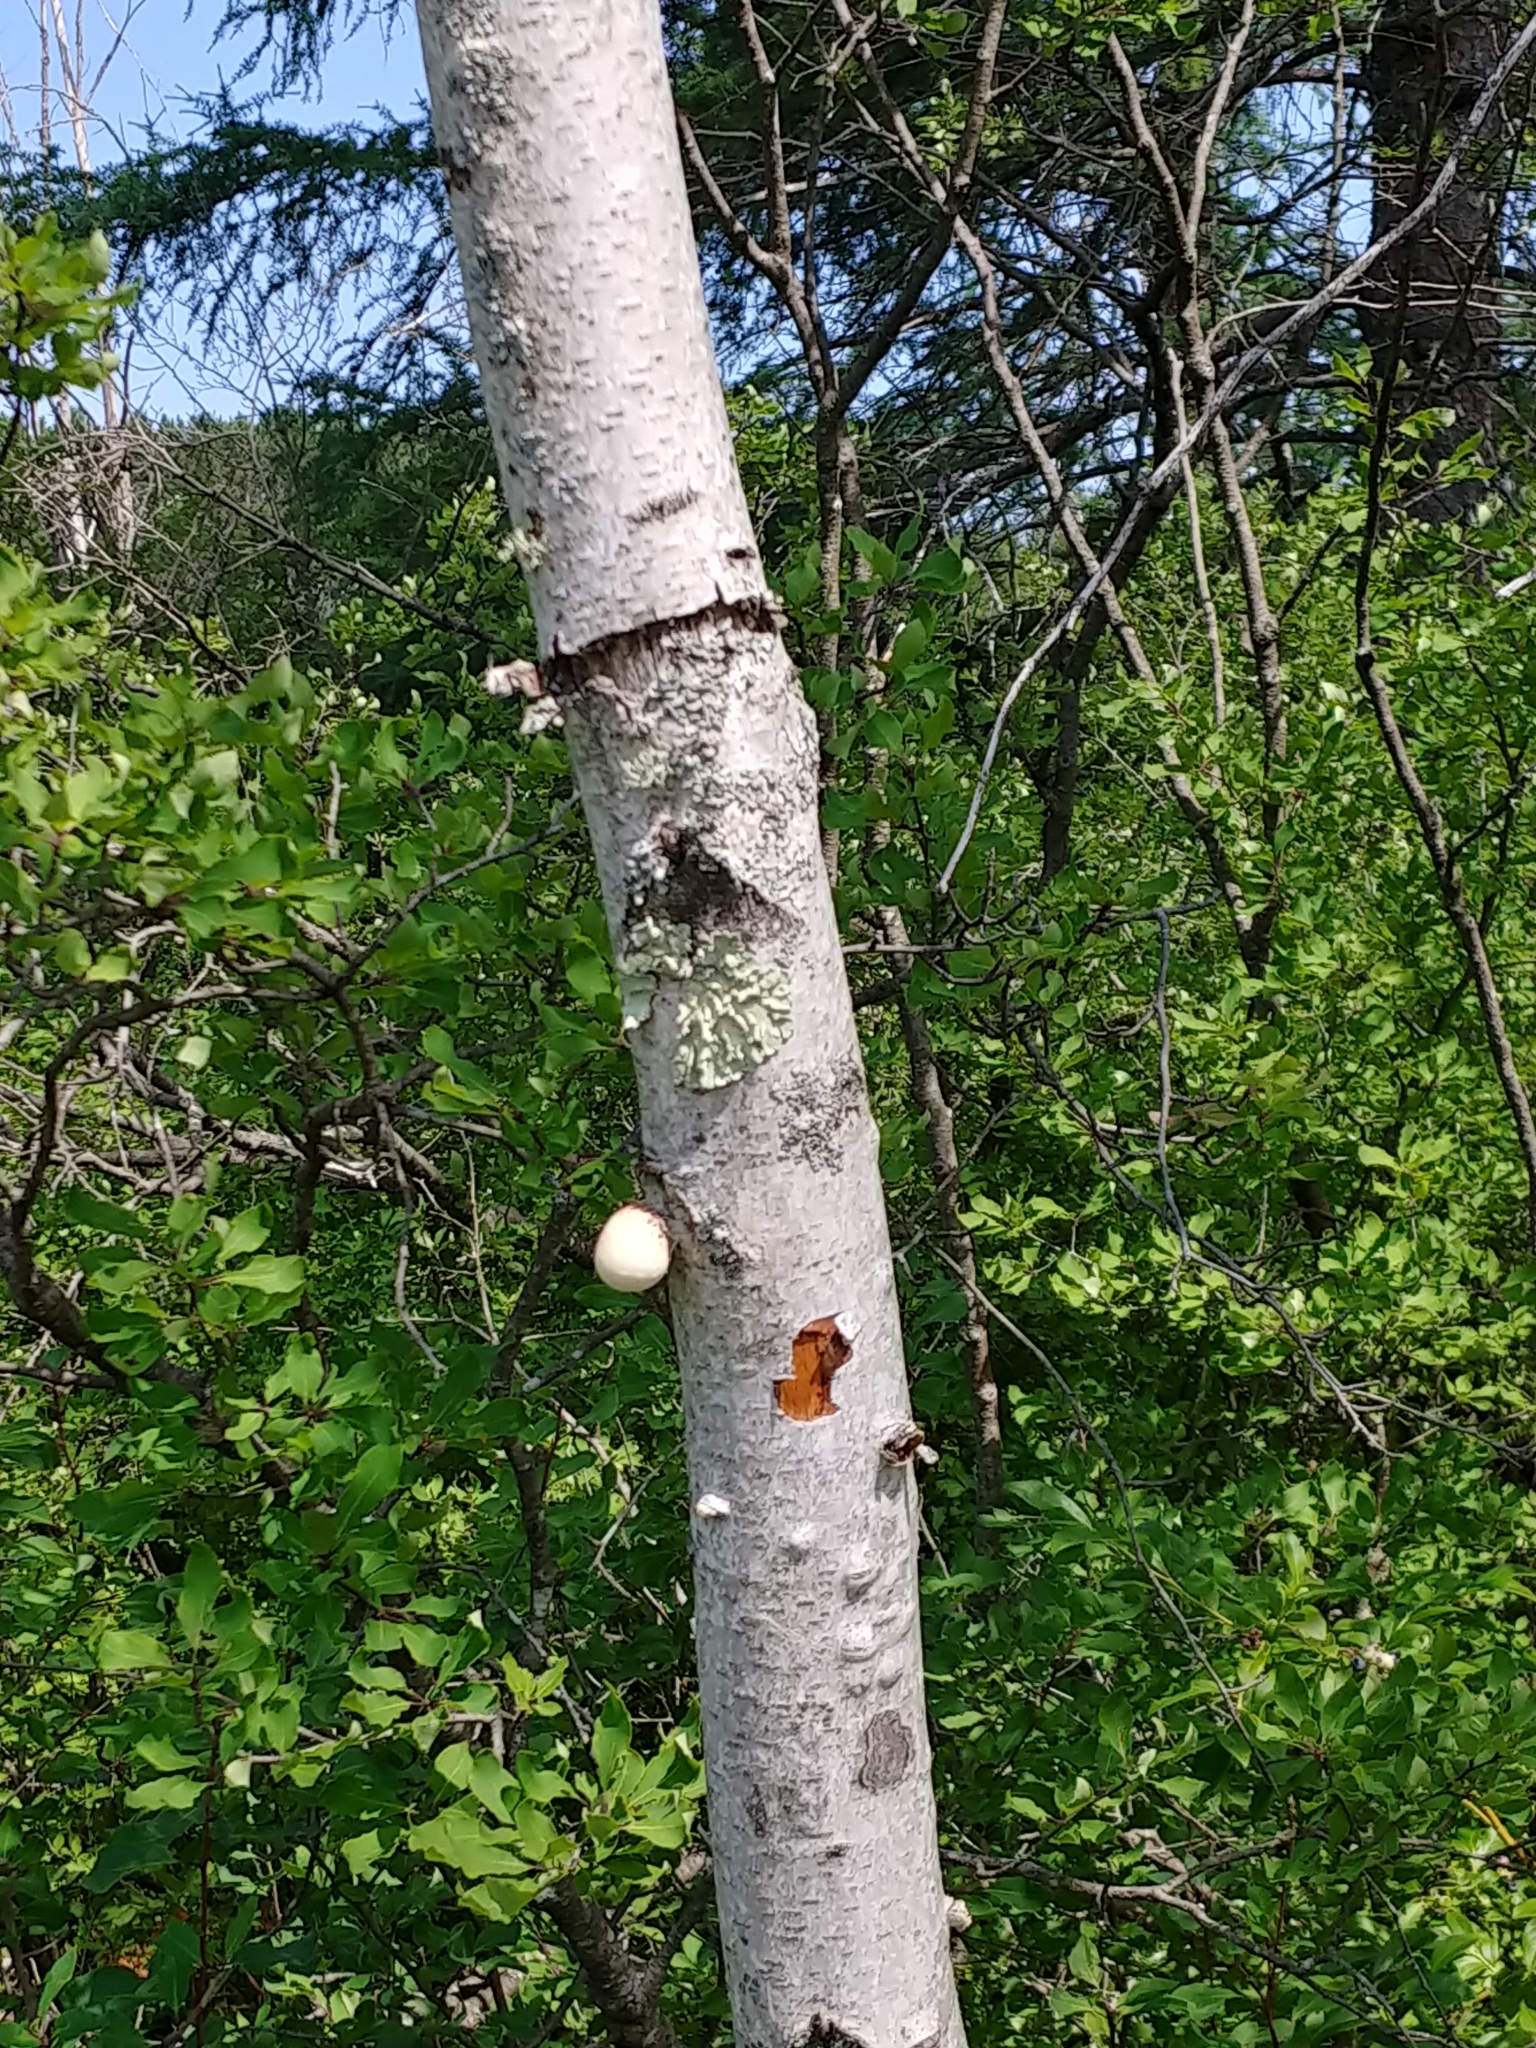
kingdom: Fungi
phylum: Basidiomycota
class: Agaricomycetes
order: Polyporales
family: Fomitopsidaceae
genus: Fomitopsis
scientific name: Fomitopsis betulina
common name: Birch polypore
